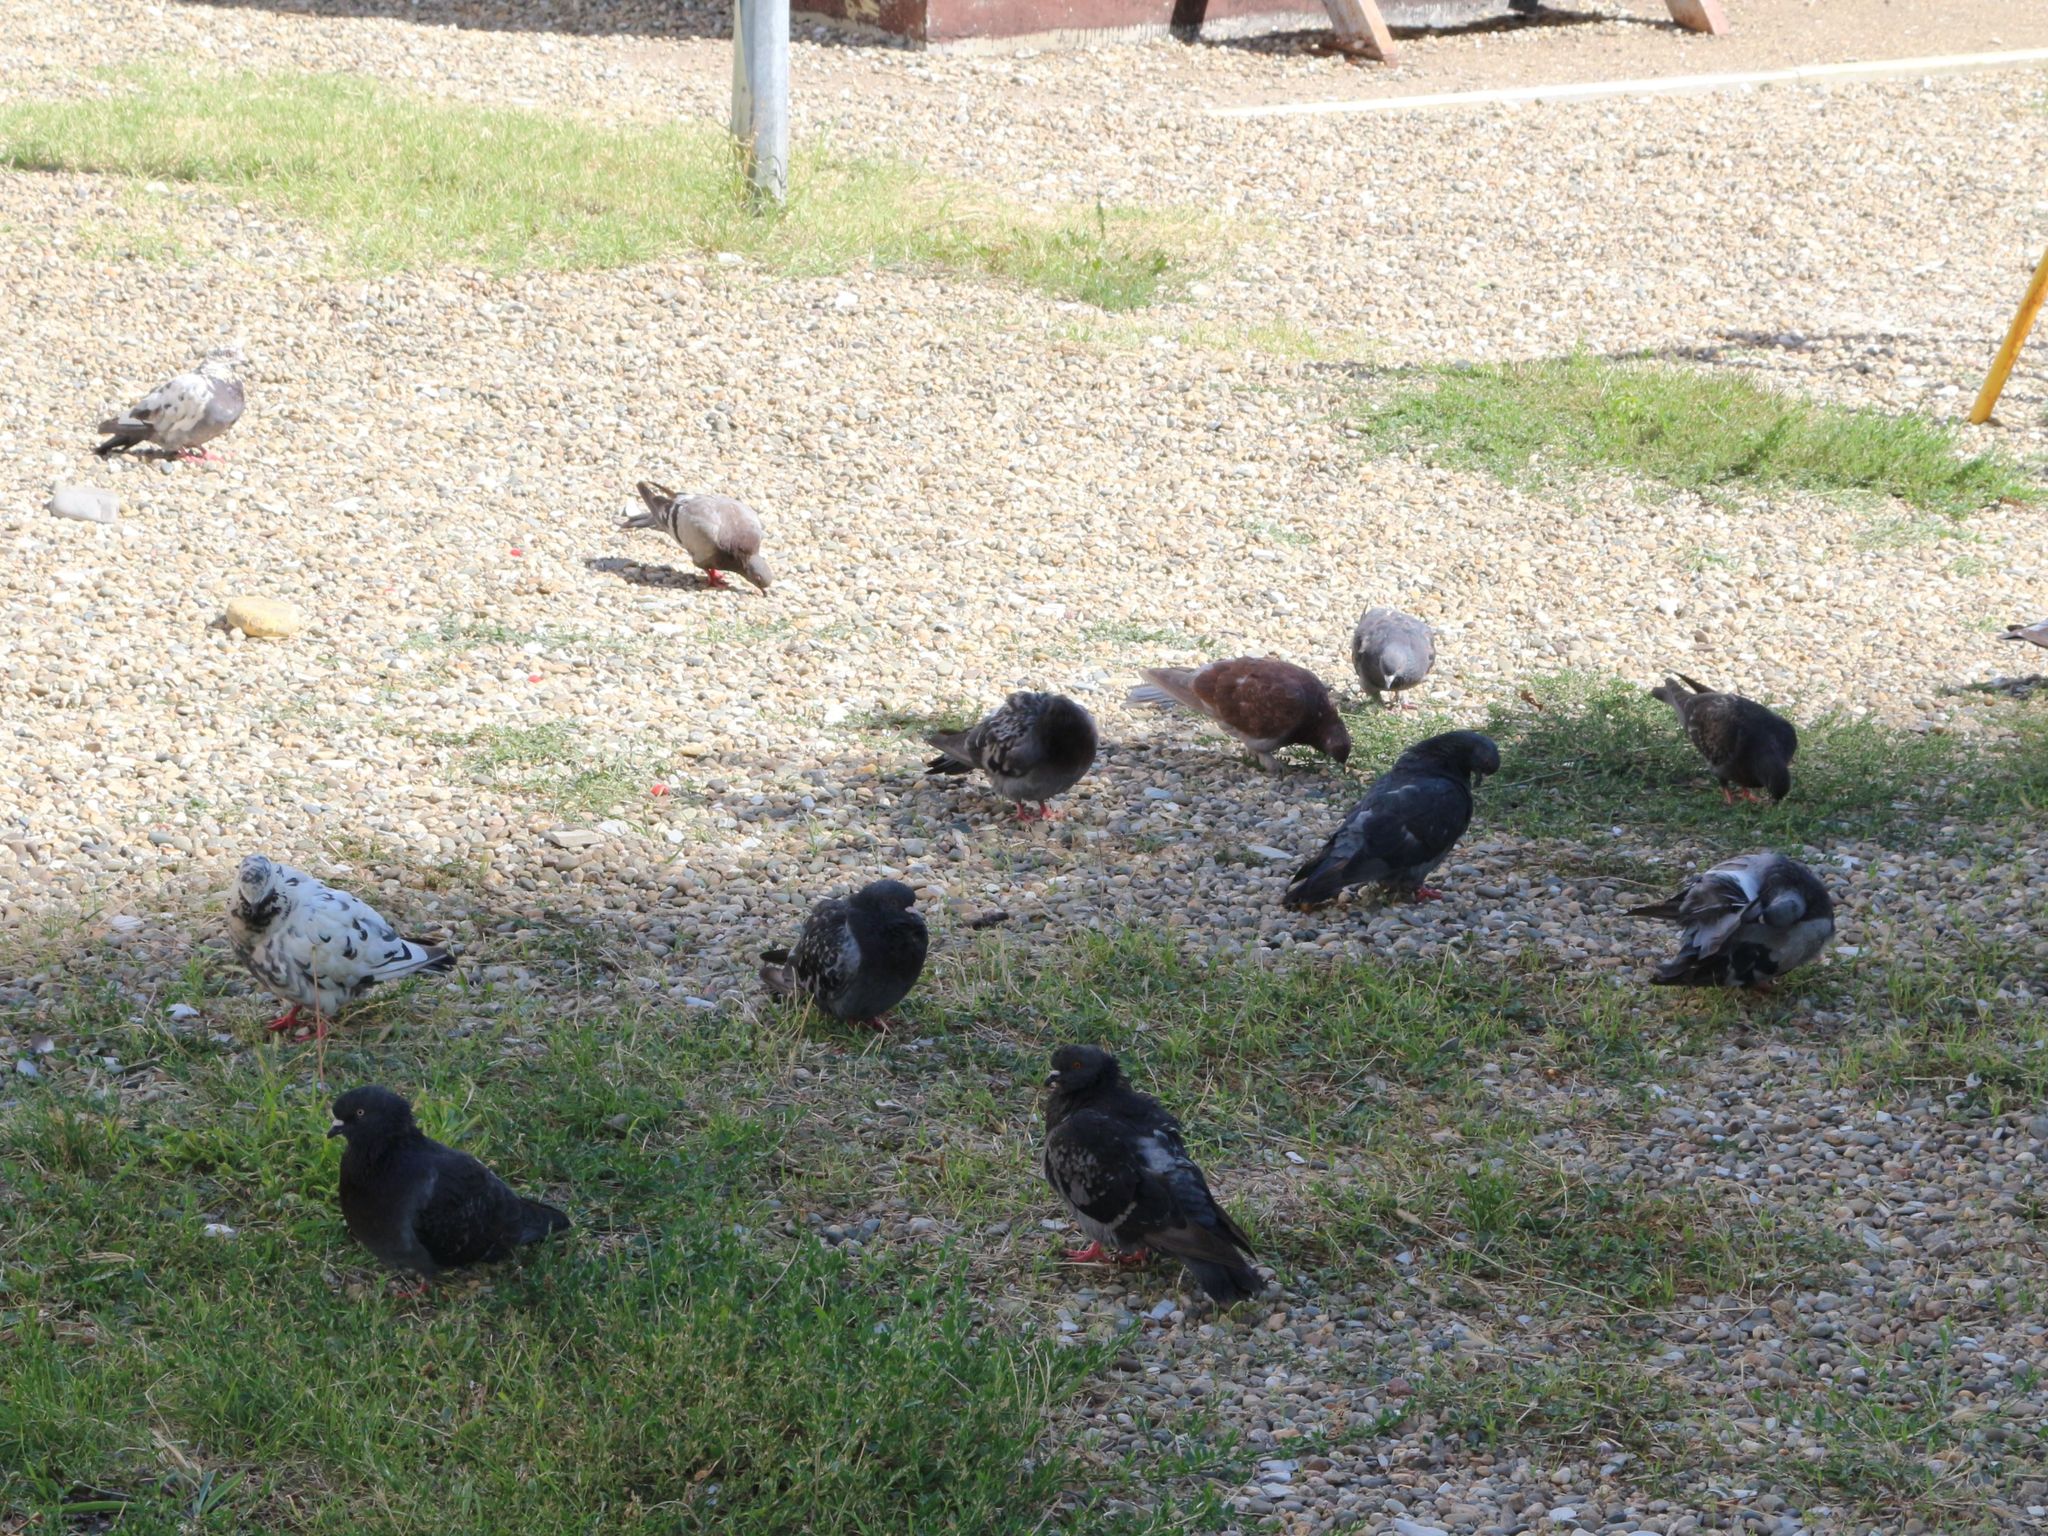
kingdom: Animalia
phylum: Chordata
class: Aves
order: Columbiformes
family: Columbidae
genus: Columba
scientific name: Columba livia
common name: Rock pigeon
